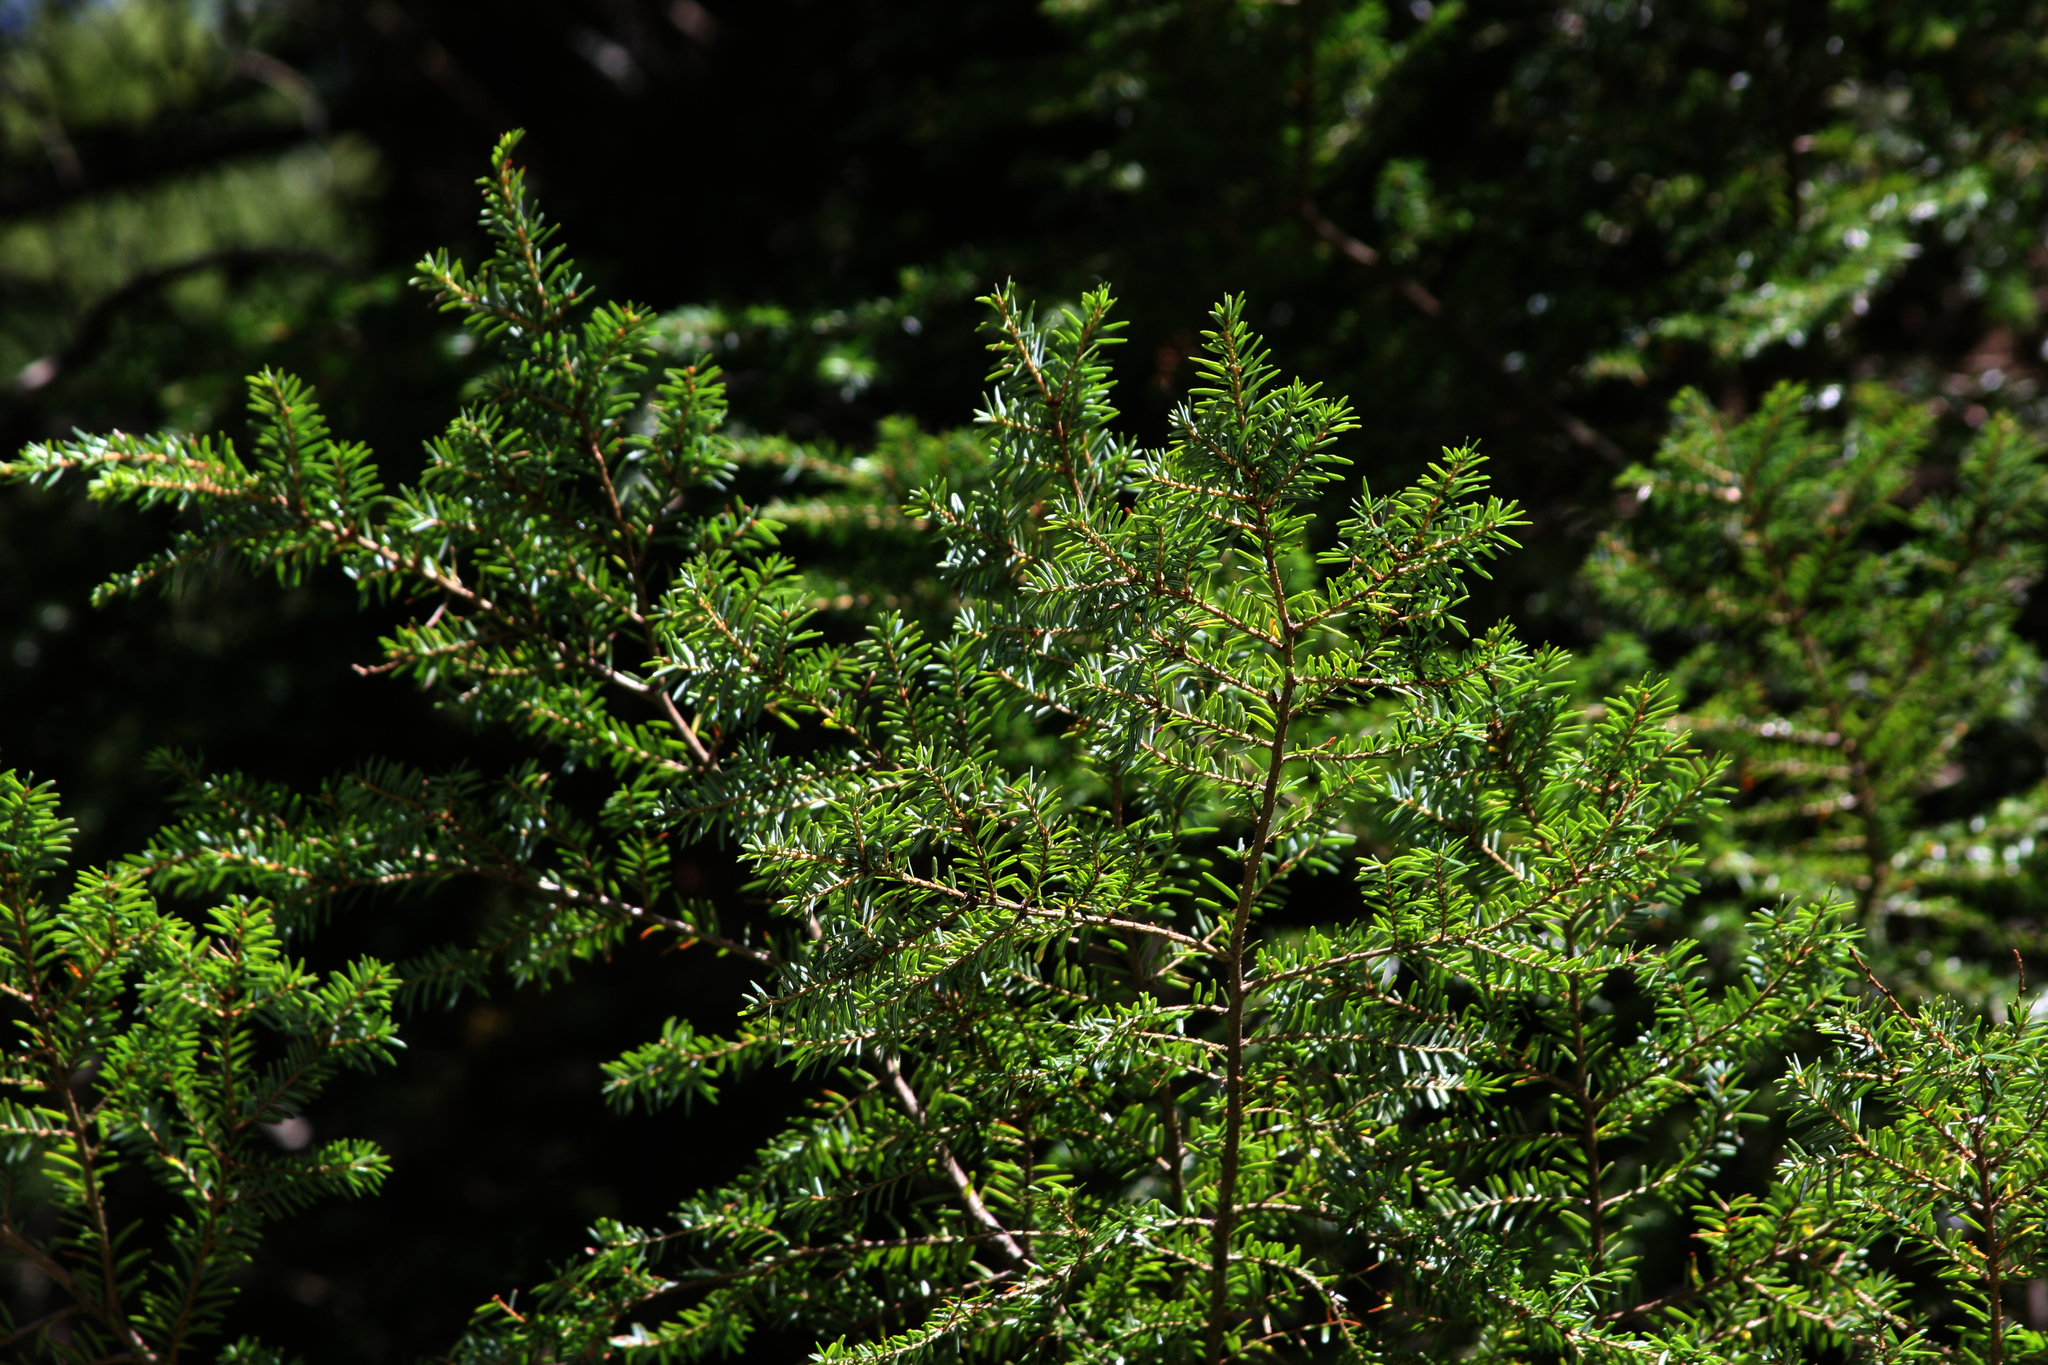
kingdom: Plantae
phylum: Tracheophyta
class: Pinopsida
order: Pinales
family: Pinaceae
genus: Tsuga
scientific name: Tsuga canadensis
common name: Eastern hemlock
